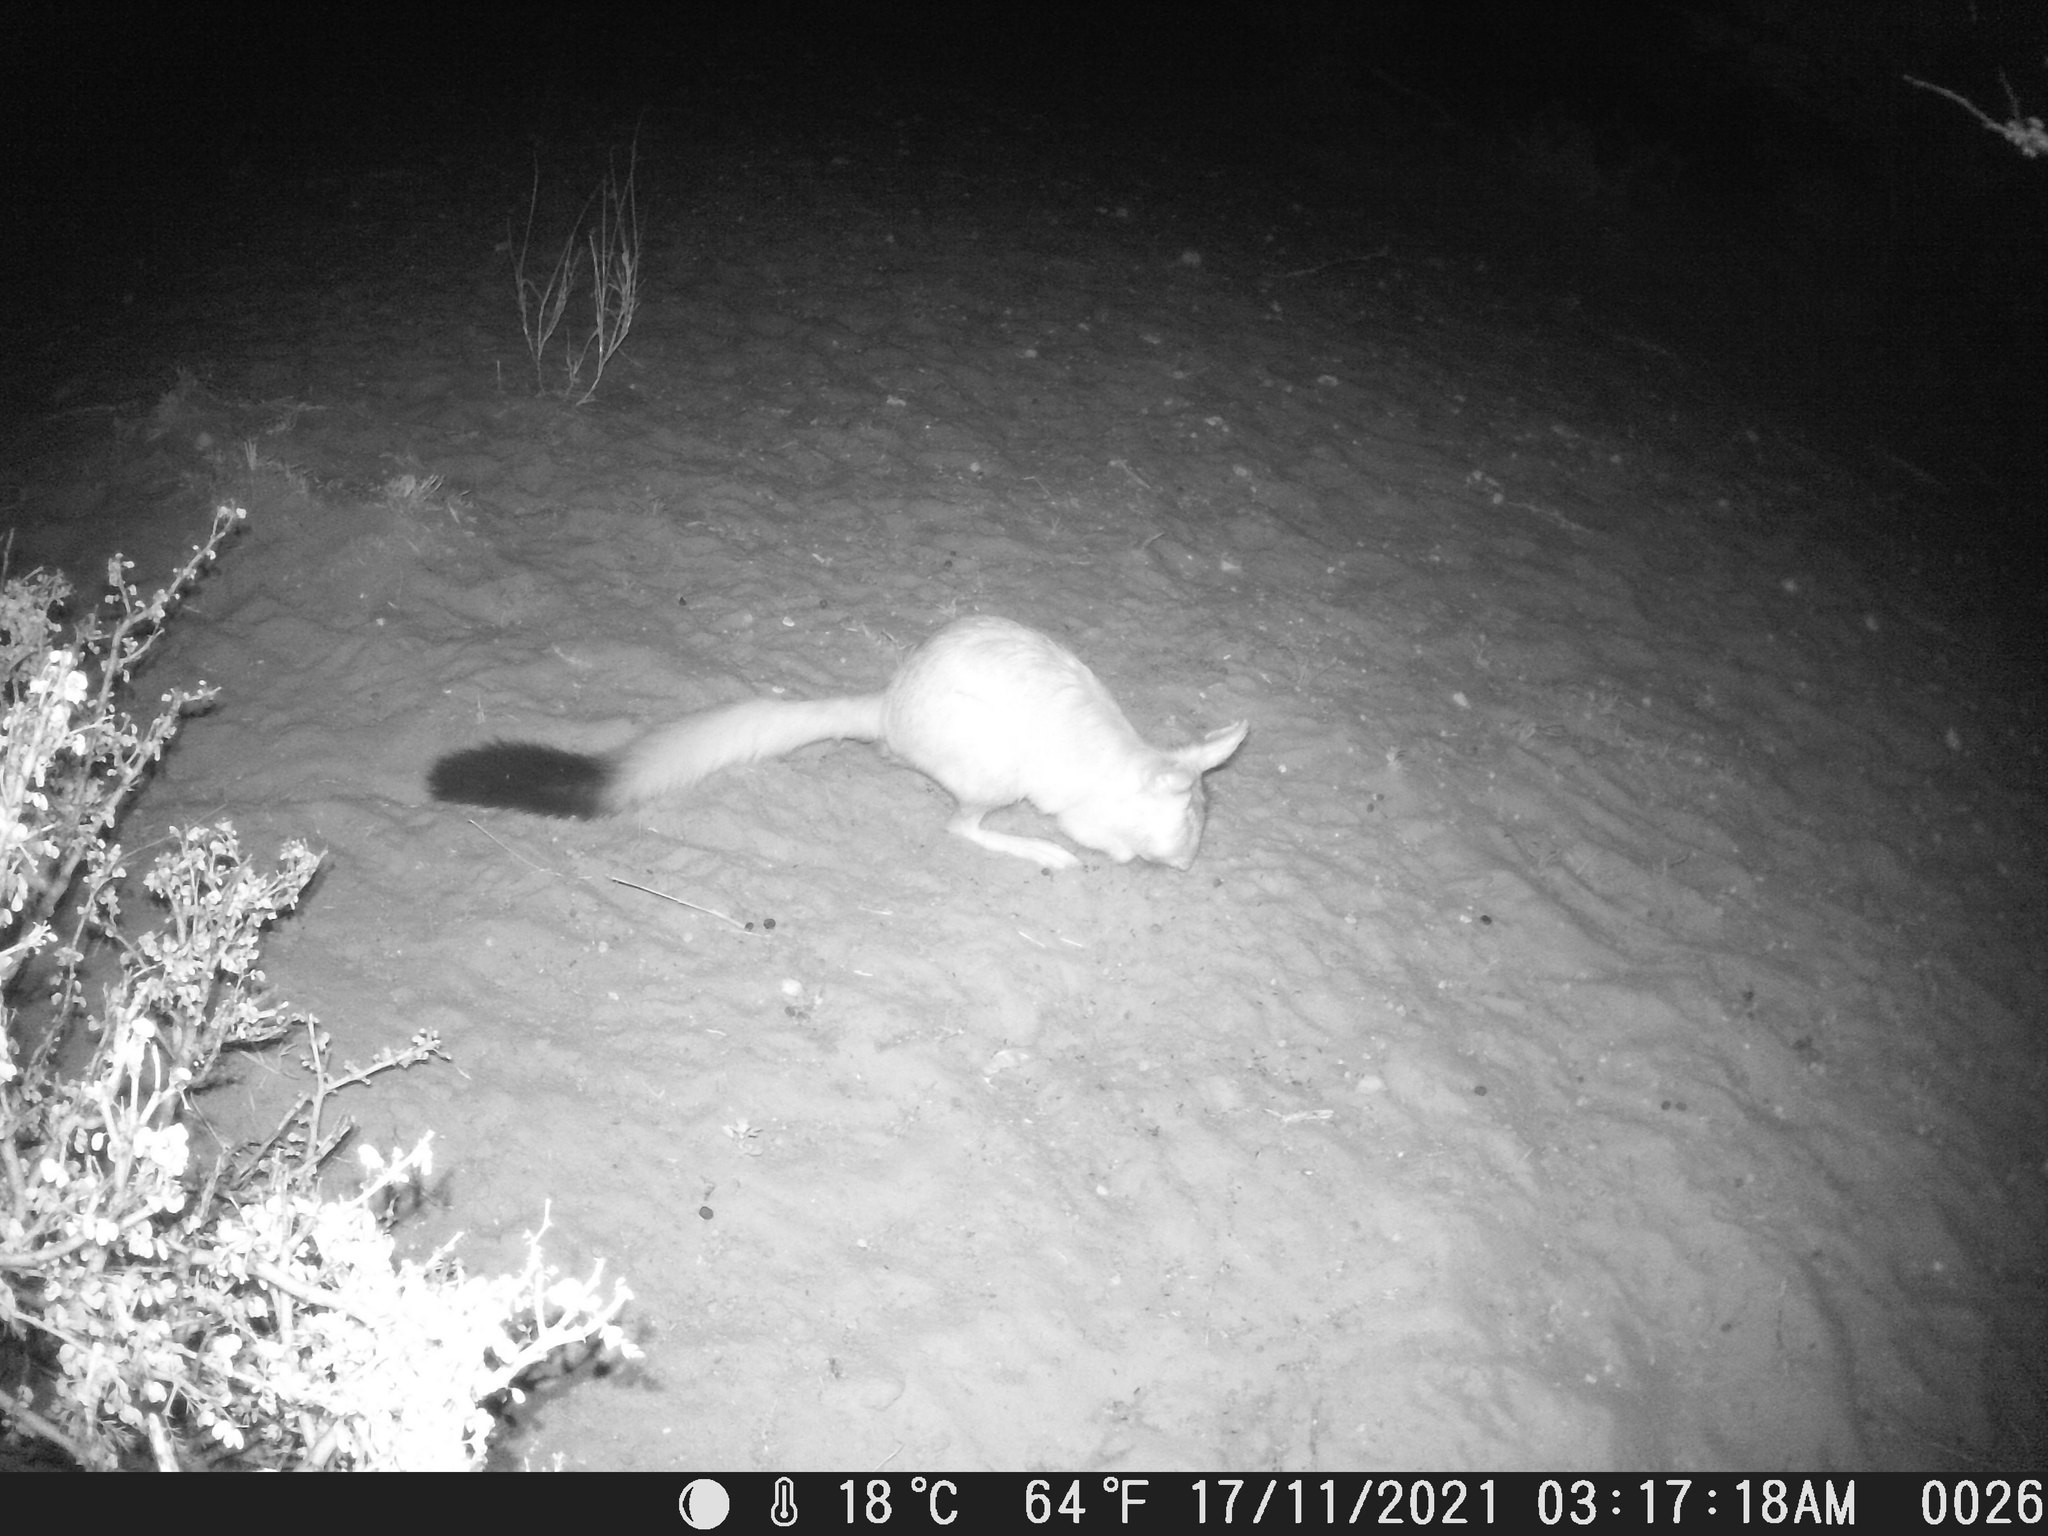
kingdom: Animalia
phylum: Chordata
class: Mammalia
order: Rodentia
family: Pedetidae
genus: Pedetes
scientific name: Pedetes capensis
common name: South african spring hare
